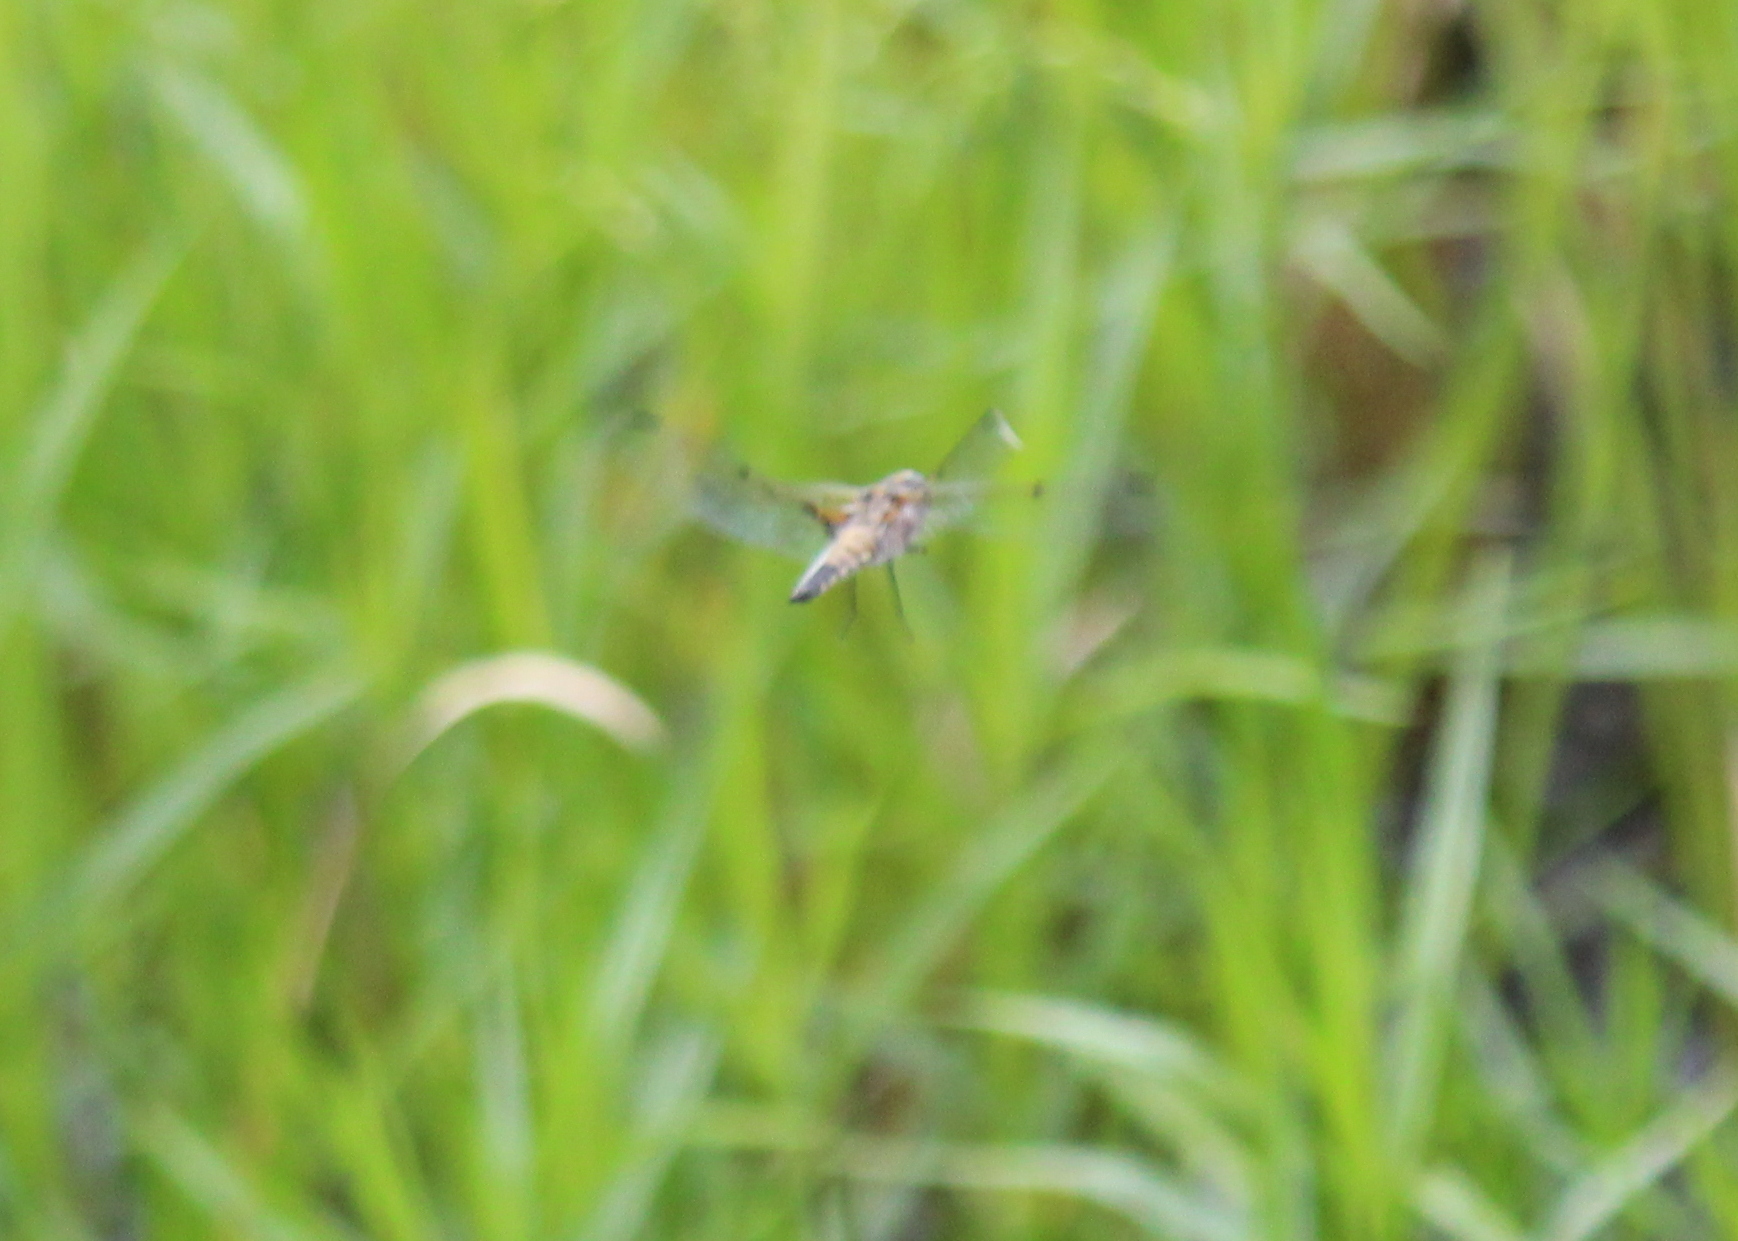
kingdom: Animalia
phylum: Arthropoda
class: Insecta
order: Odonata
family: Libellulidae
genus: Libellula
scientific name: Libellula quadrimaculata
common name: Four-spotted chaser
